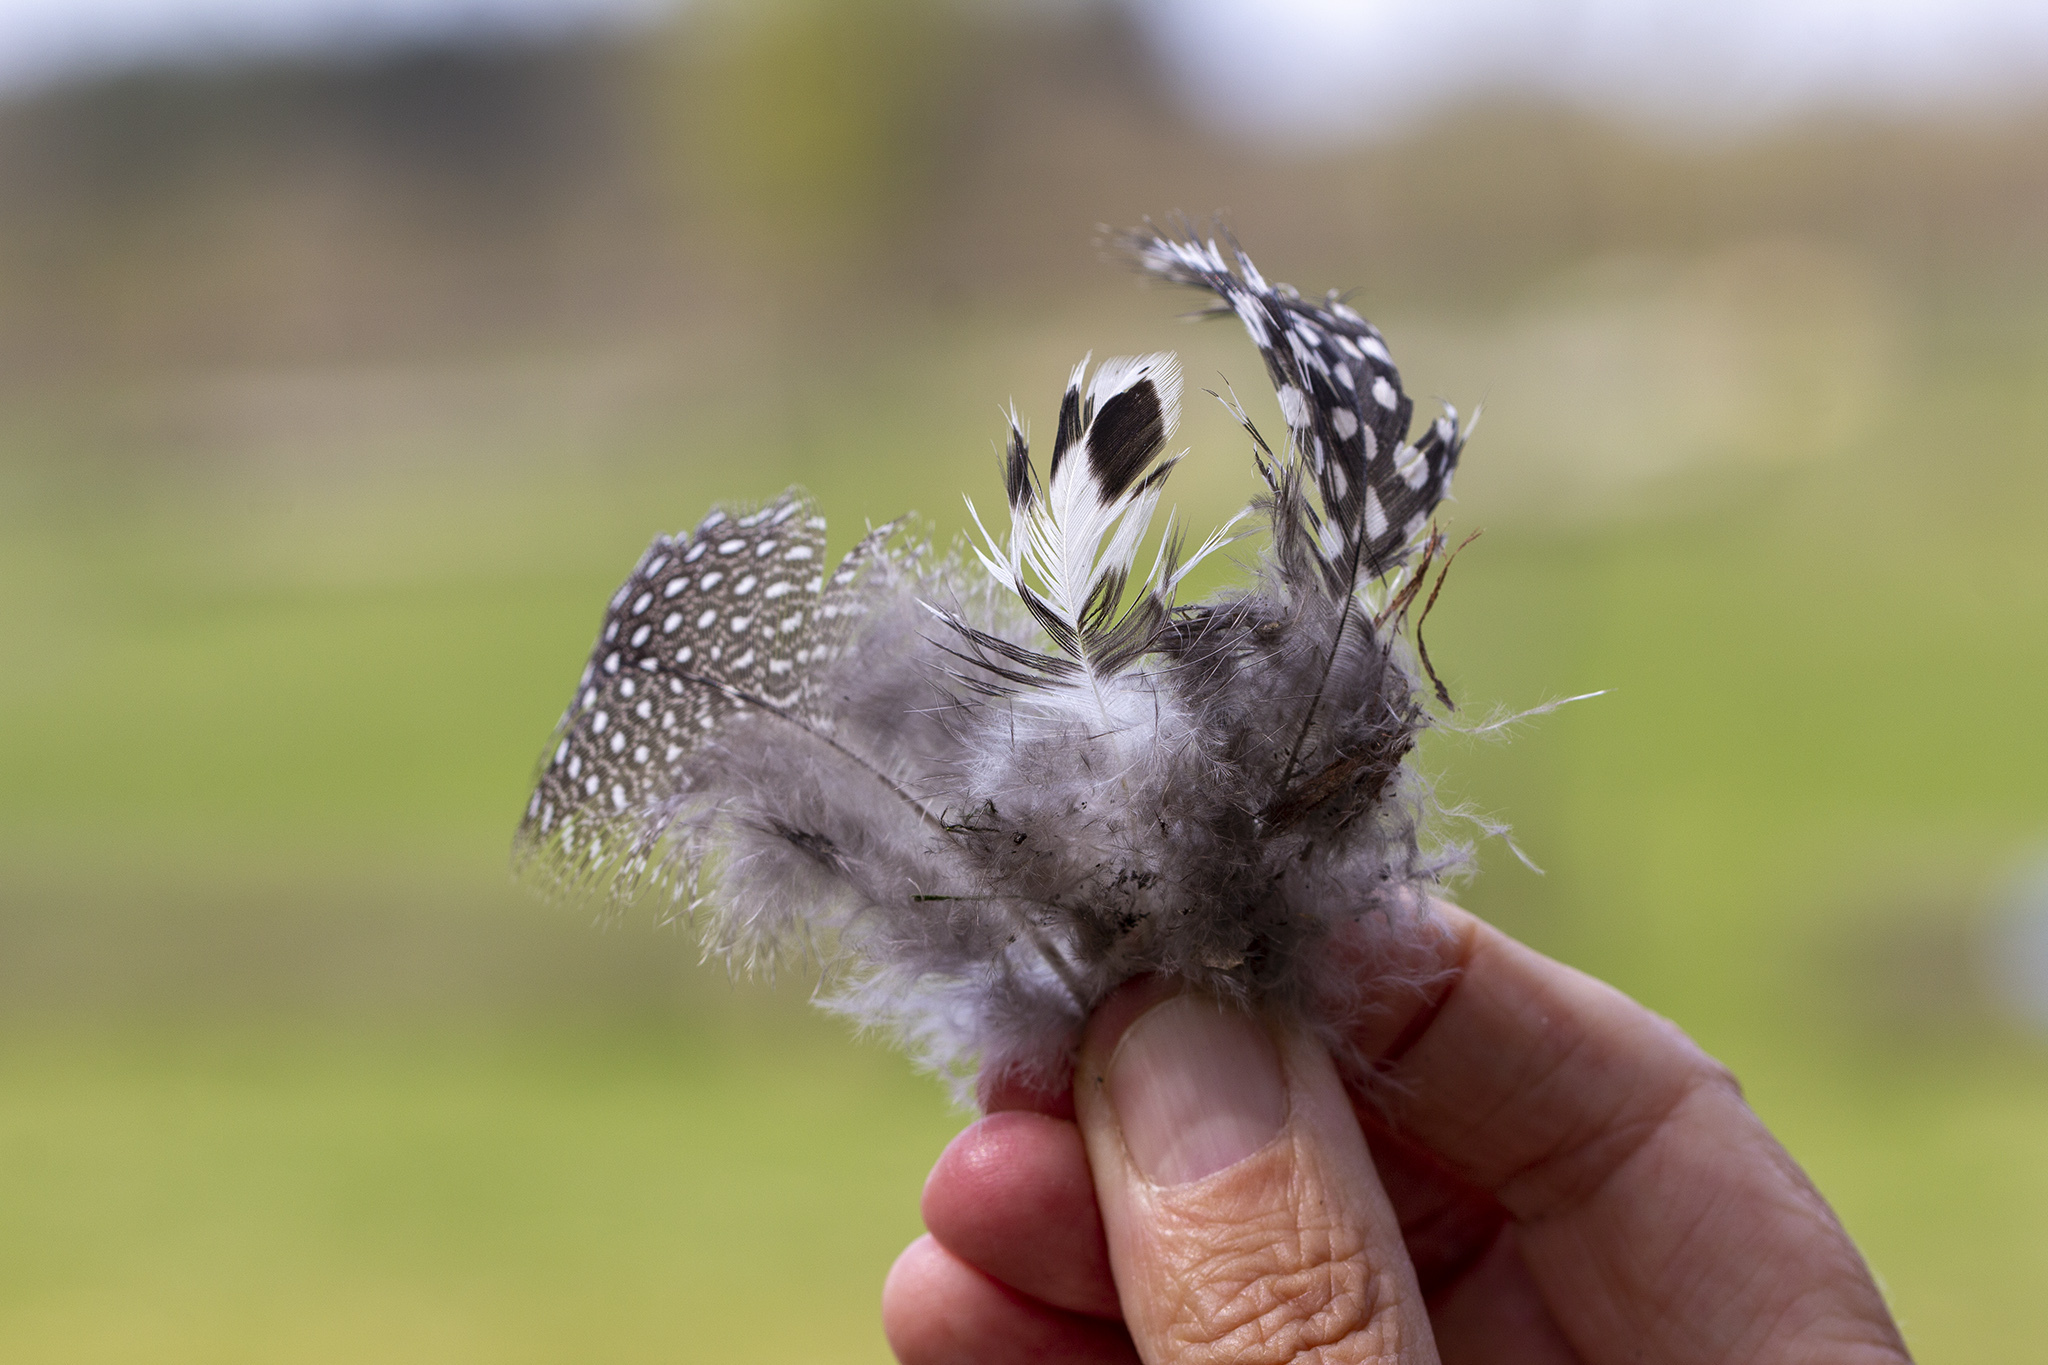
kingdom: Animalia
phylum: Chordata
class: Aves
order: Galliformes
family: Numididae
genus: Numida
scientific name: Numida meleagris
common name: Helmeted guineafowl
